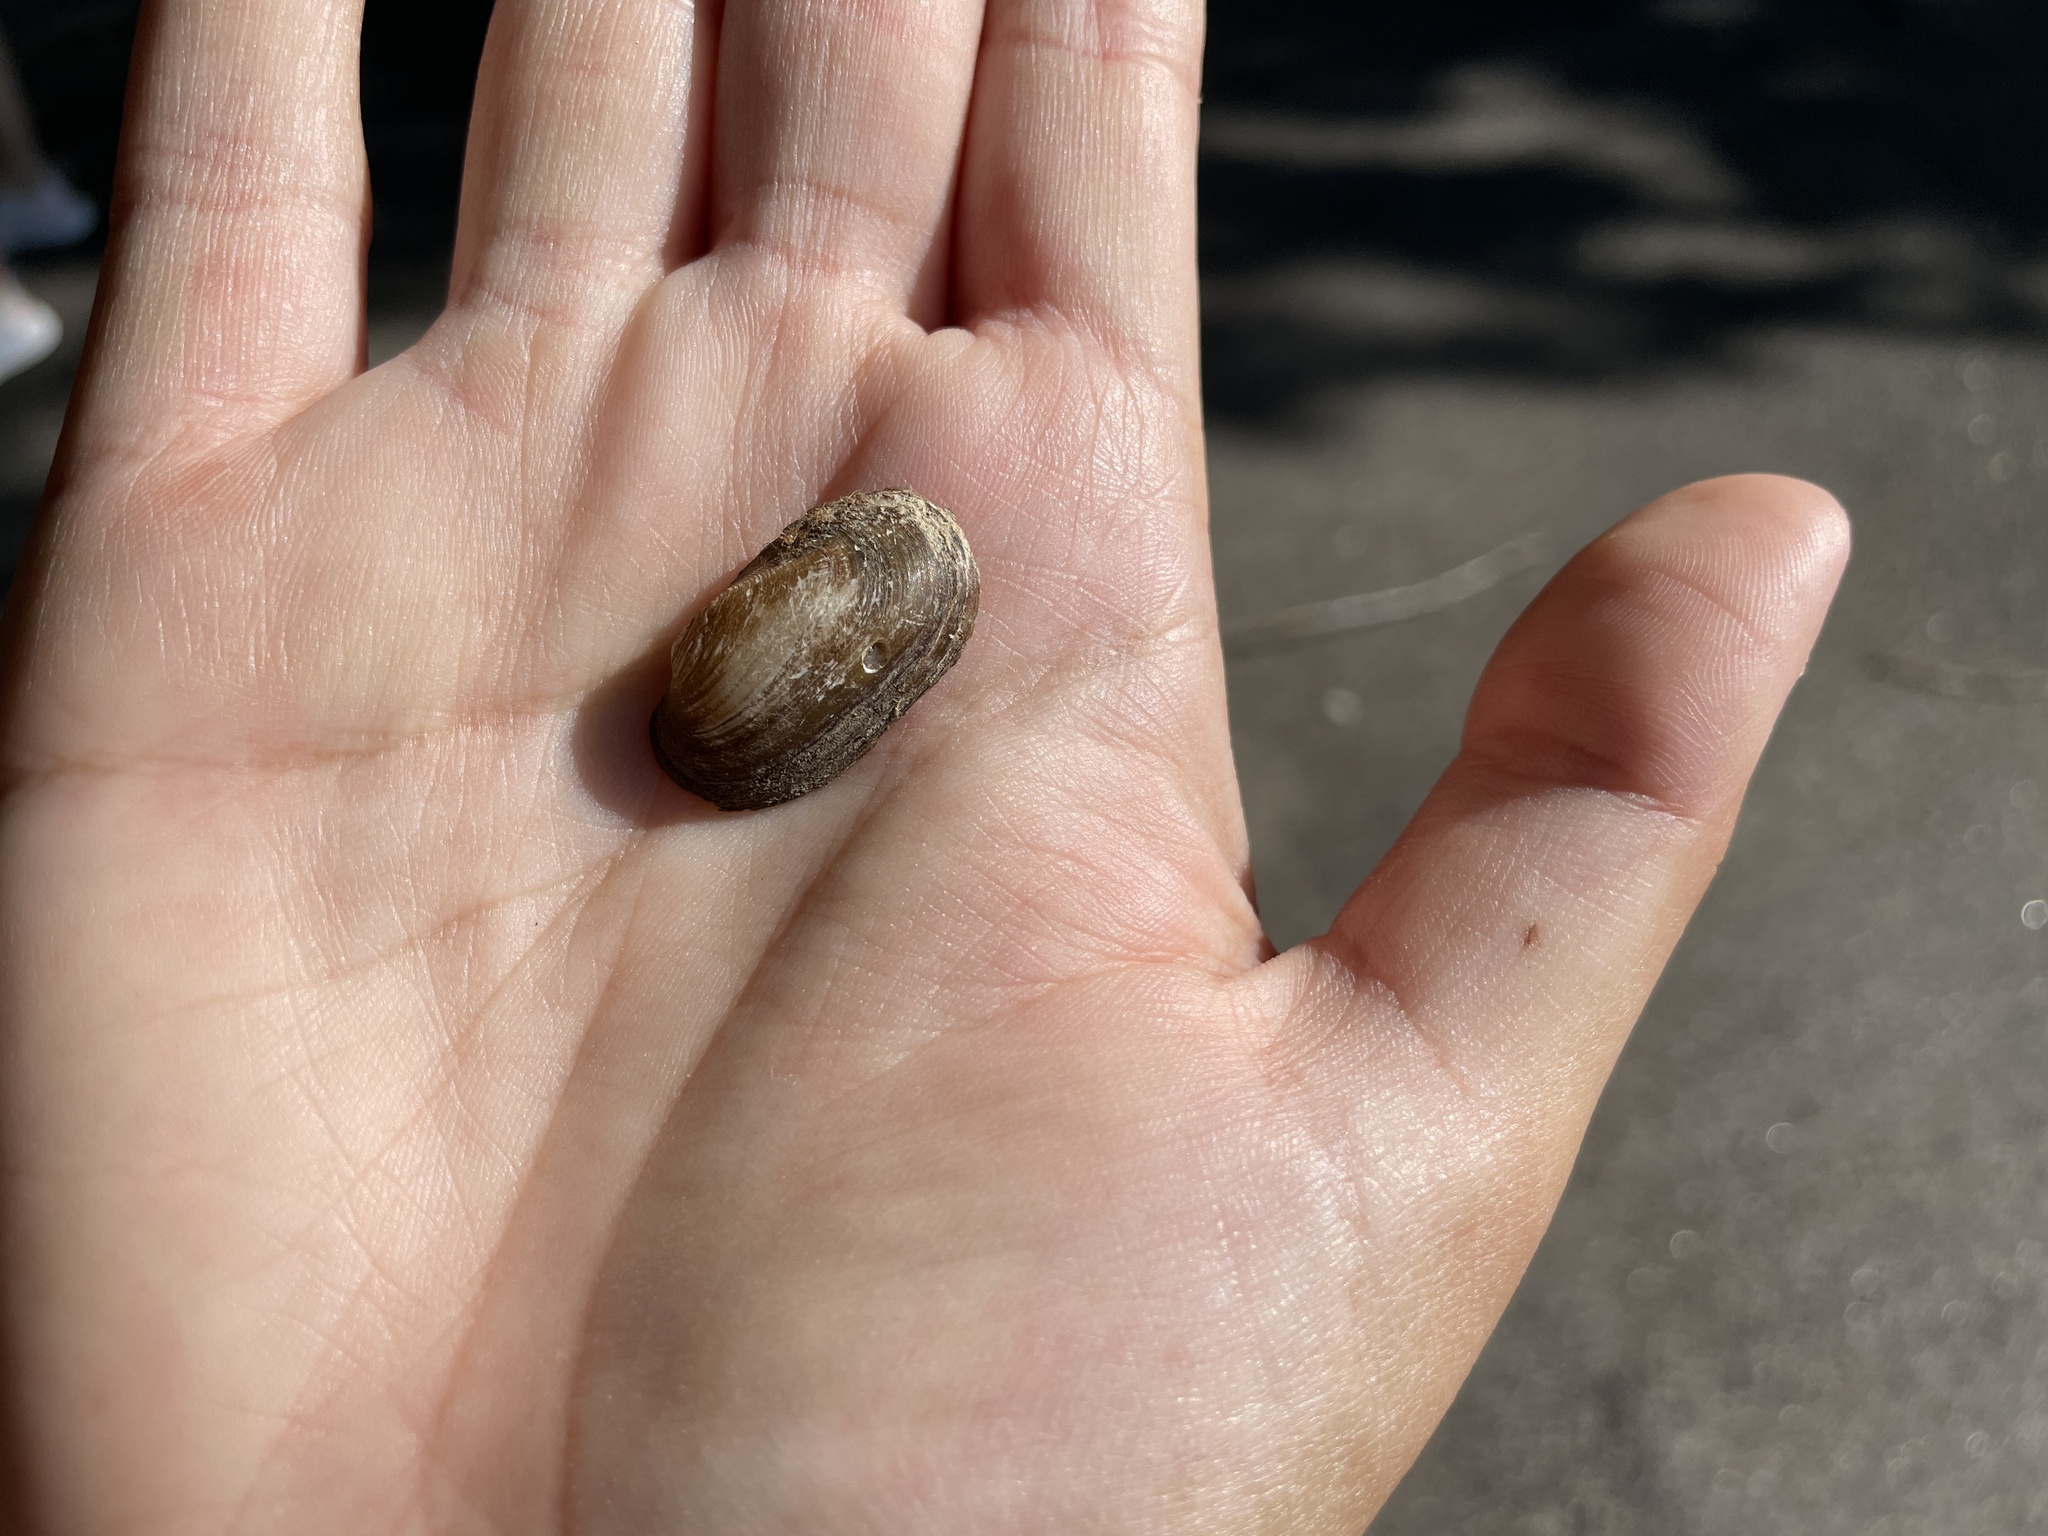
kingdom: Animalia
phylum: Mollusca
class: Bivalvia
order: Unionida
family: Unionidae
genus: Toxolasma
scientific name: Toxolasma parvum
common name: Lilliput
